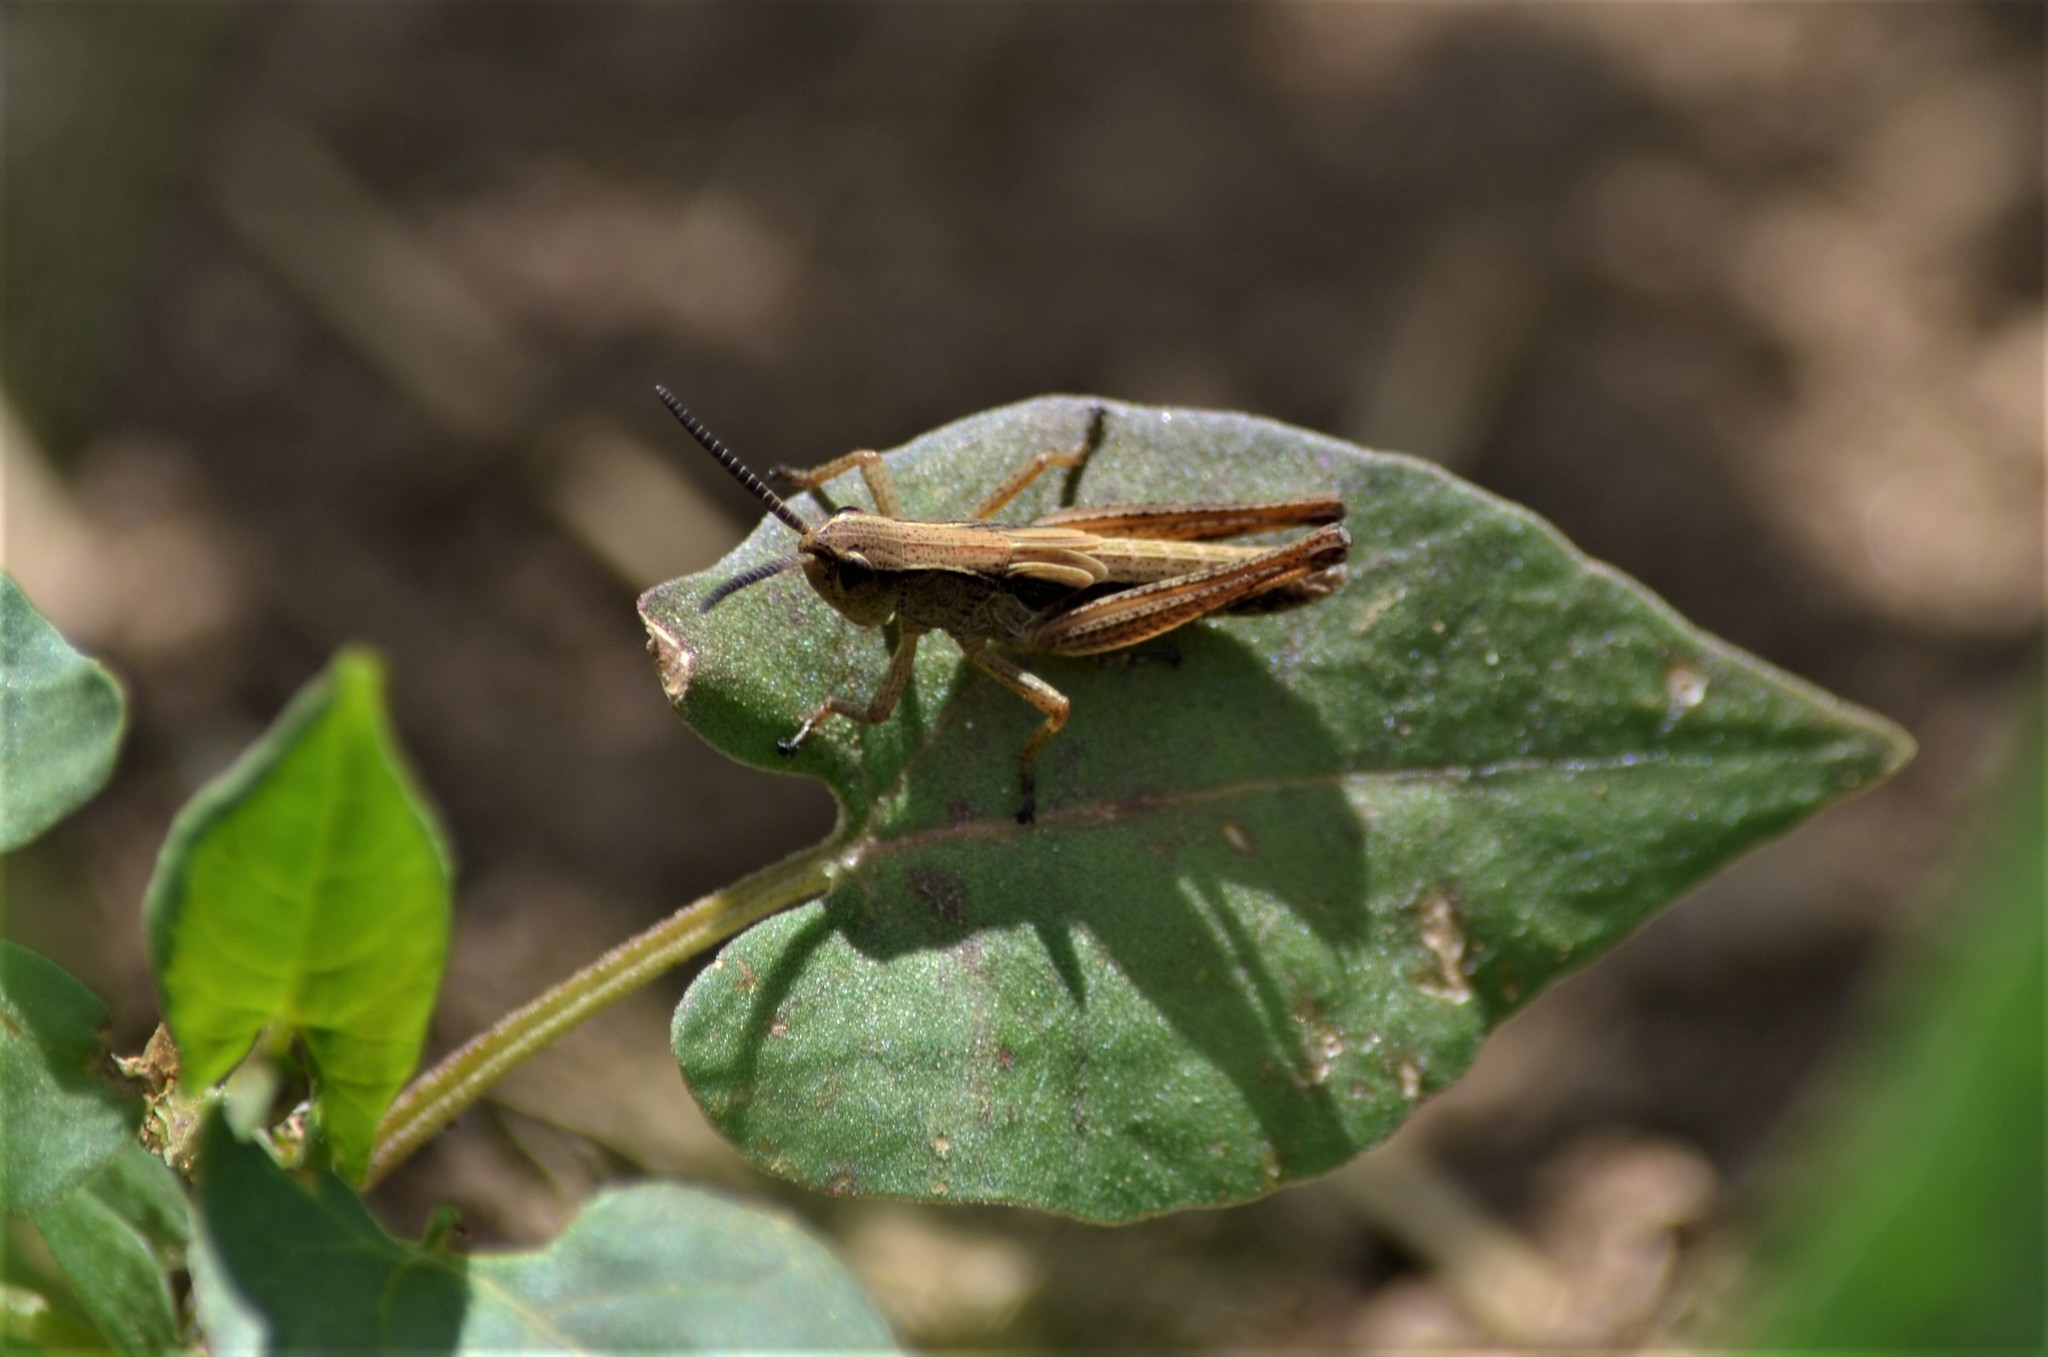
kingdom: Animalia
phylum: Arthropoda
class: Insecta
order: Orthoptera
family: Acrididae
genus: Pseudochorthippus
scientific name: Pseudochorthippus parallelus
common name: Meadow grasshopper
